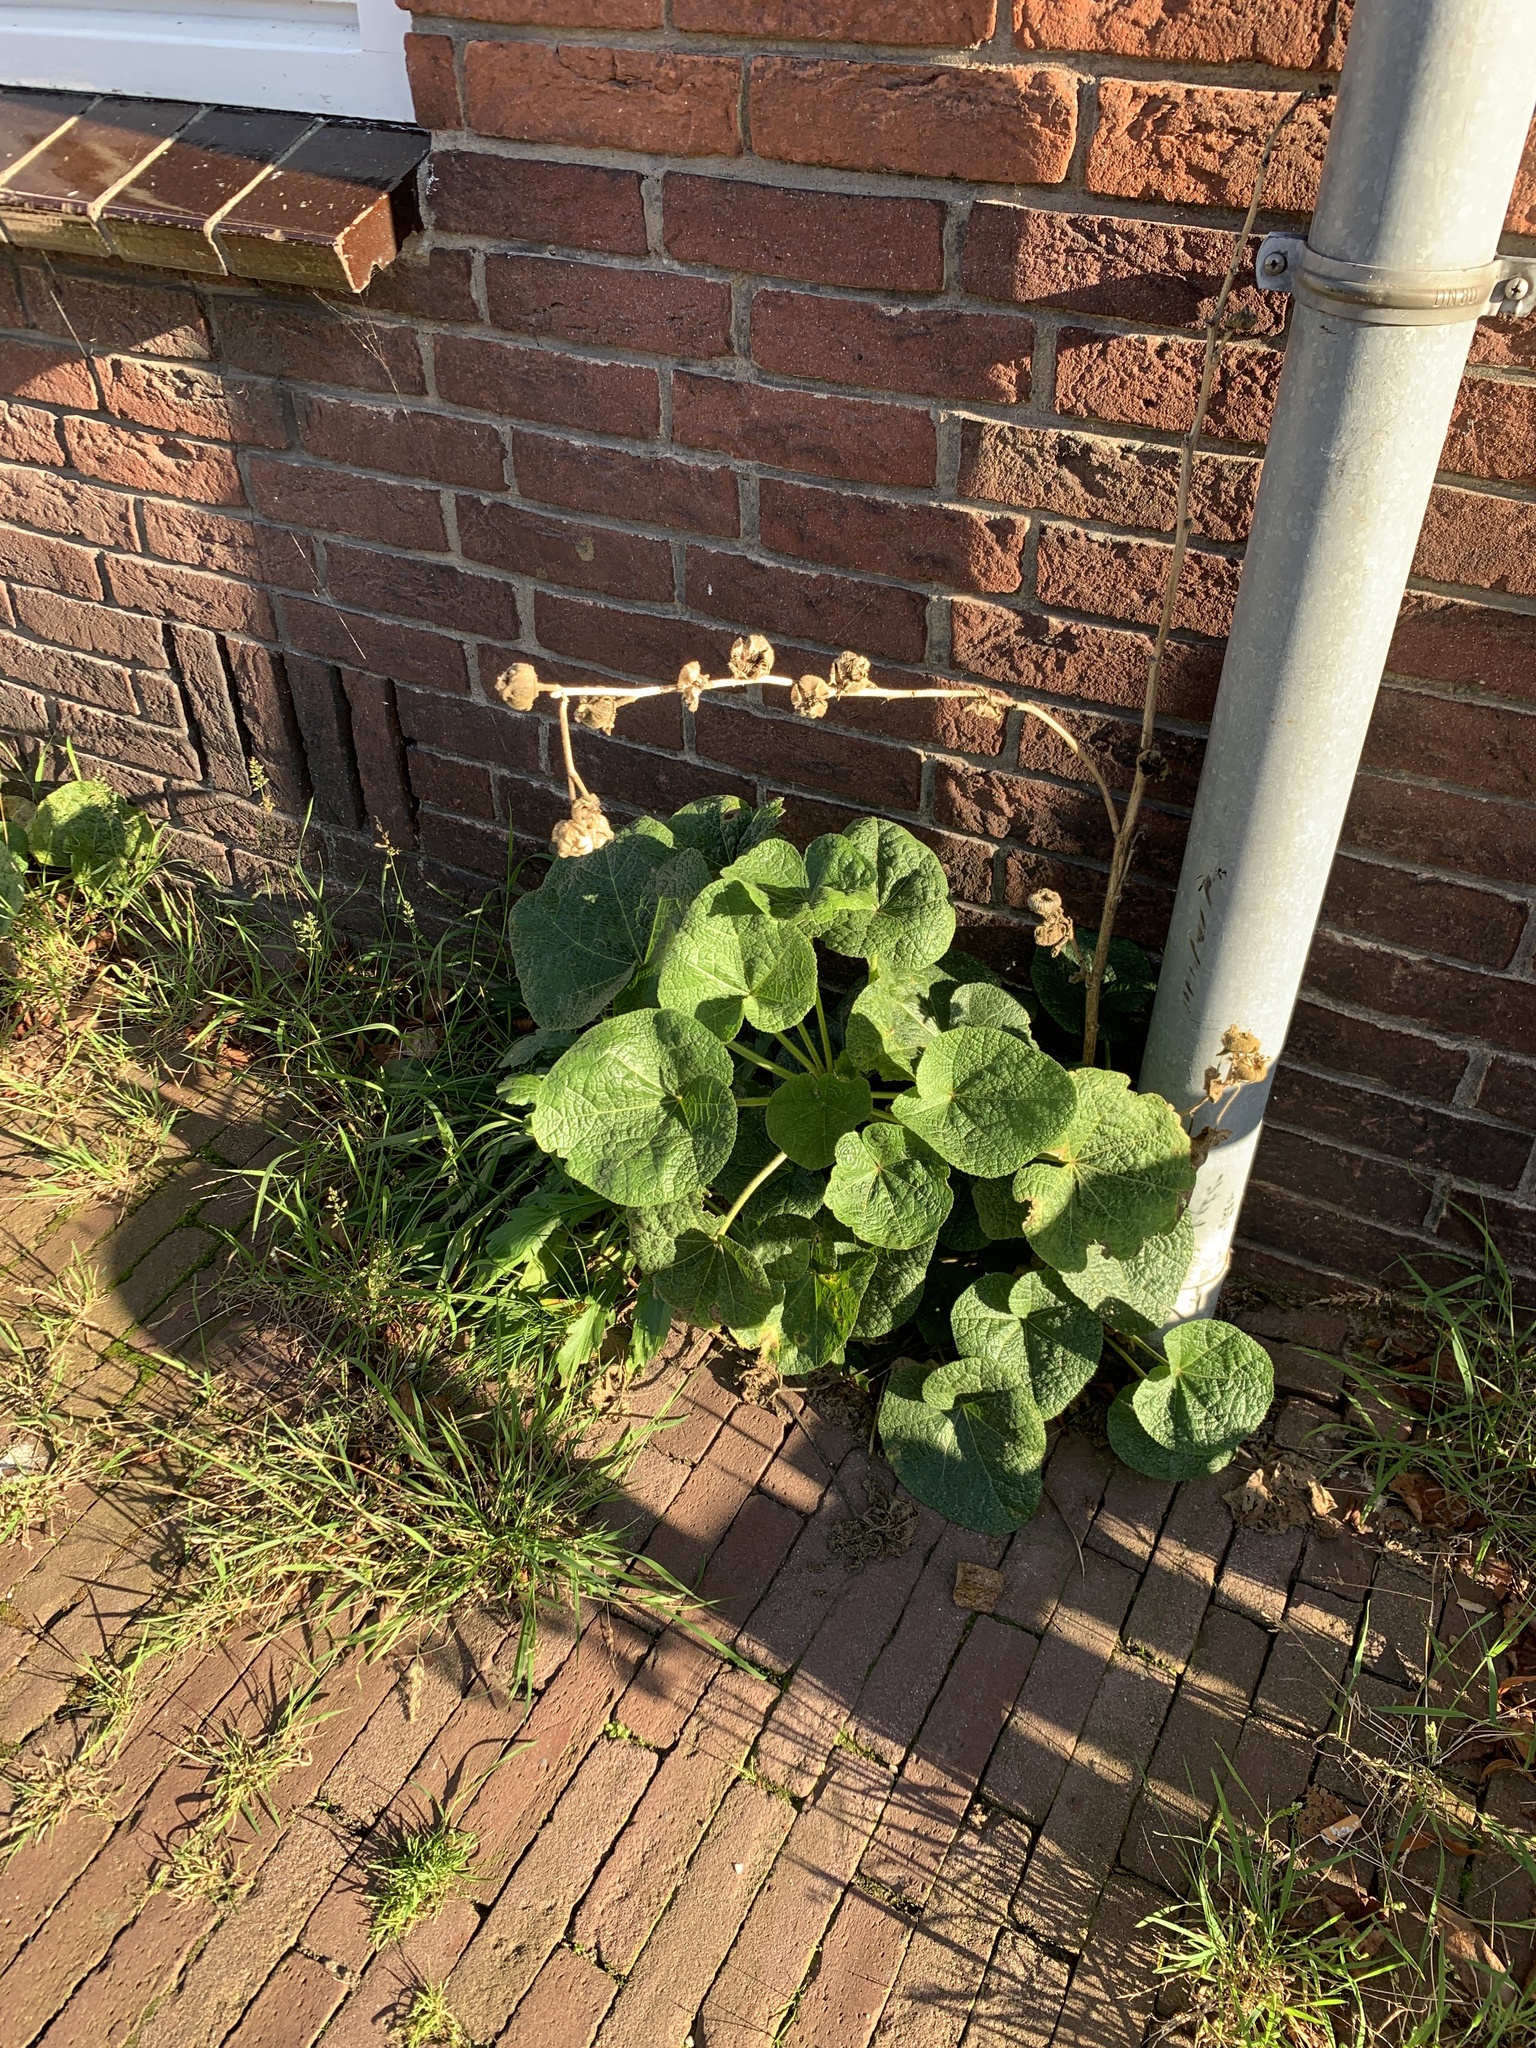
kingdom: Plantae
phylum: Tracheophyta
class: Magnoliopsida
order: Malvales
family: Malvaceae
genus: Alcea
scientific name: Alcea rosea
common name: Hollyhock
